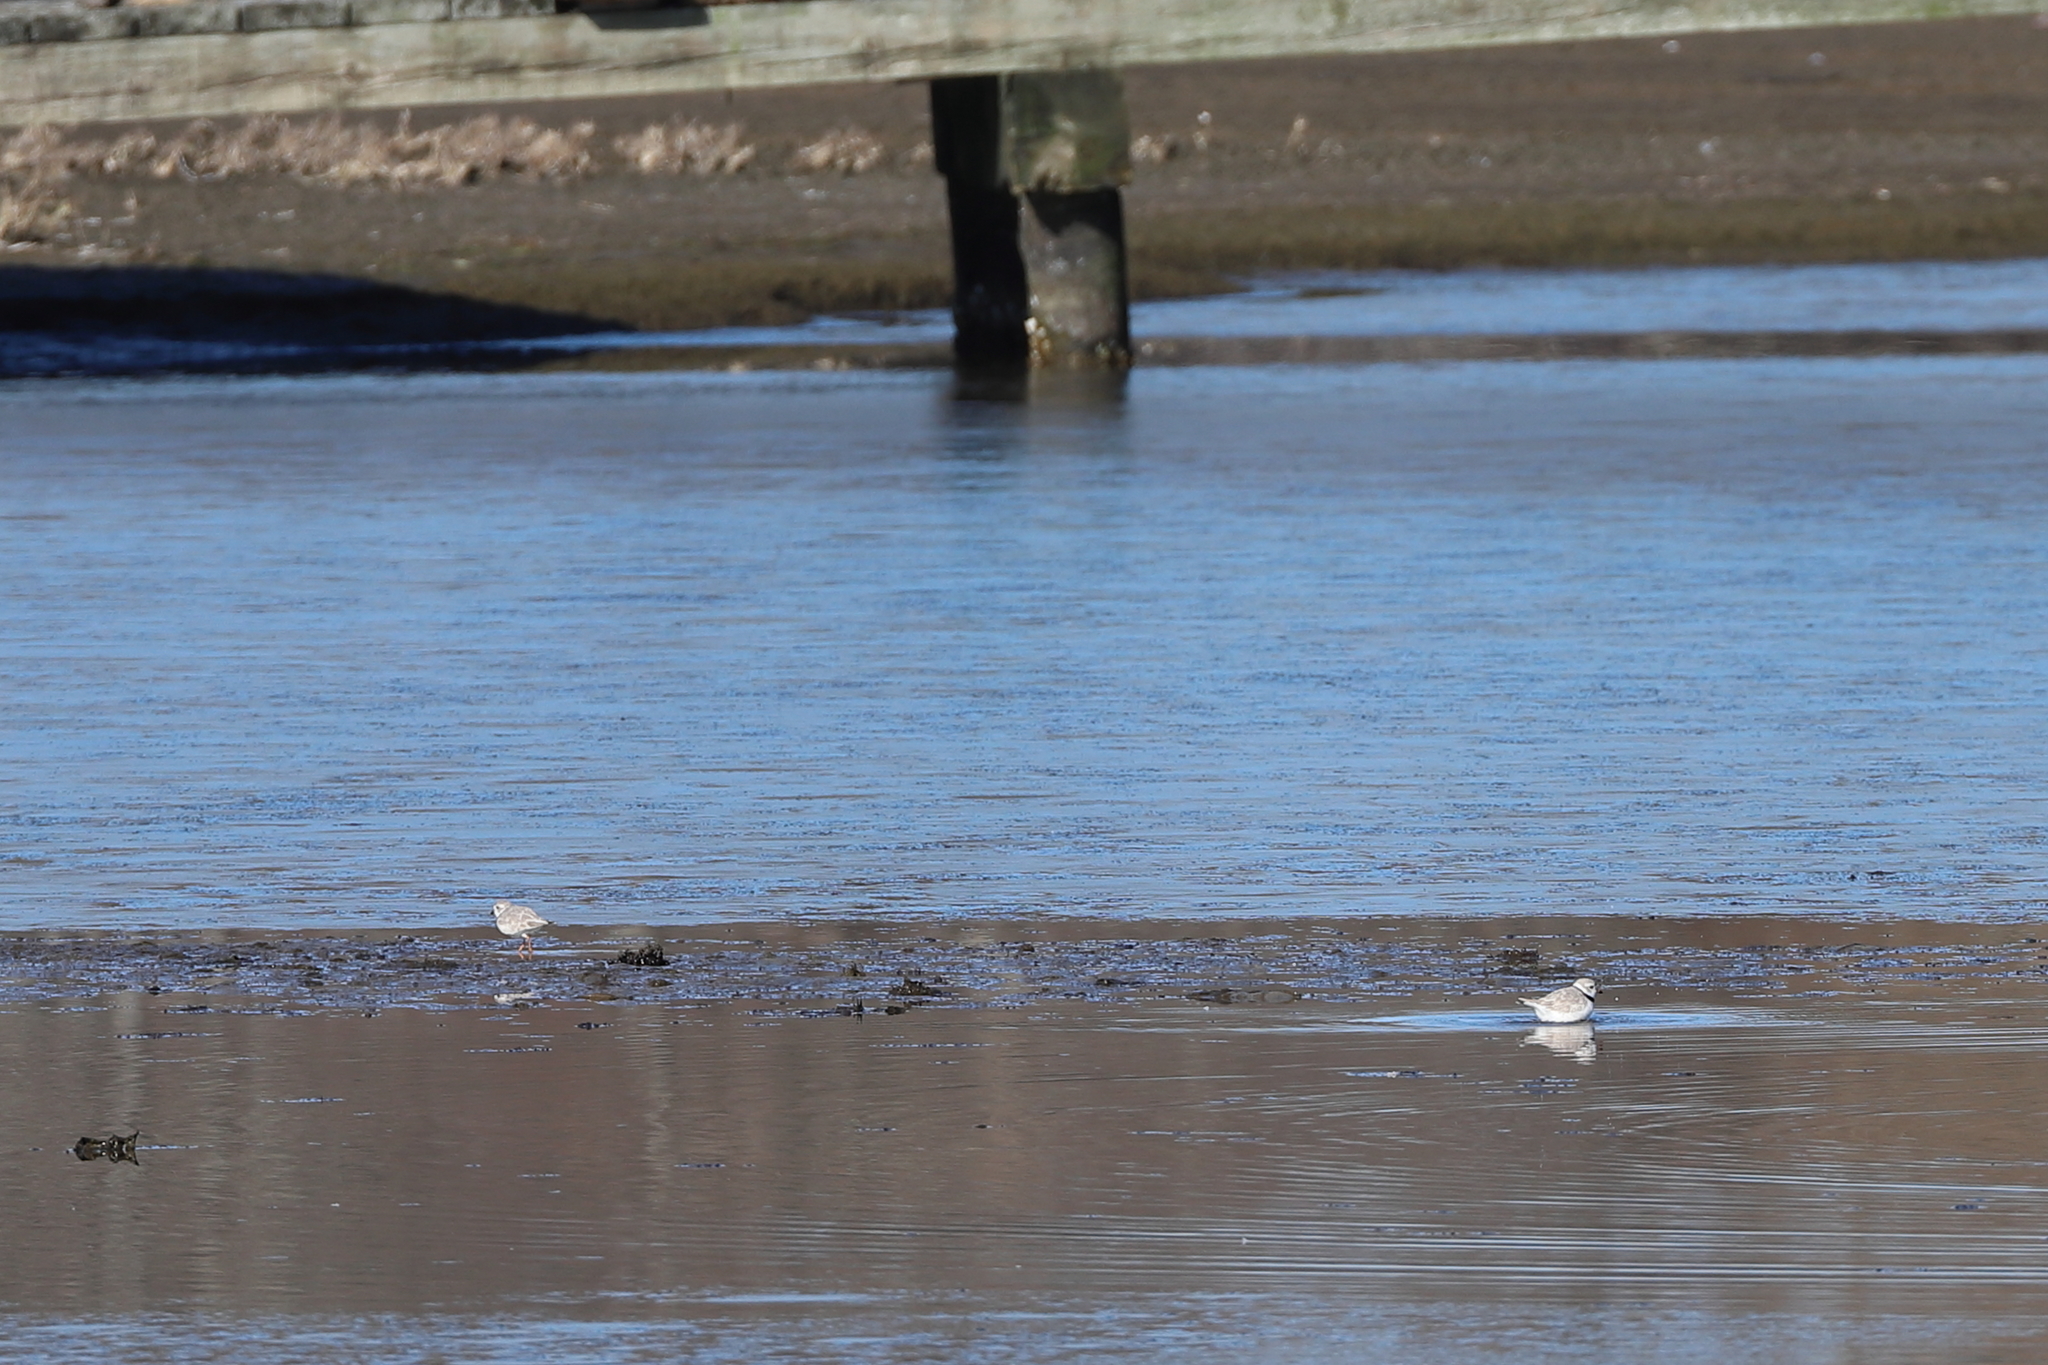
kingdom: Animalia
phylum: Chordata
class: Aves
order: Charadriiformes
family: Charadriidae
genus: Charadrius
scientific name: Charadrius melodus
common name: Piping plover
